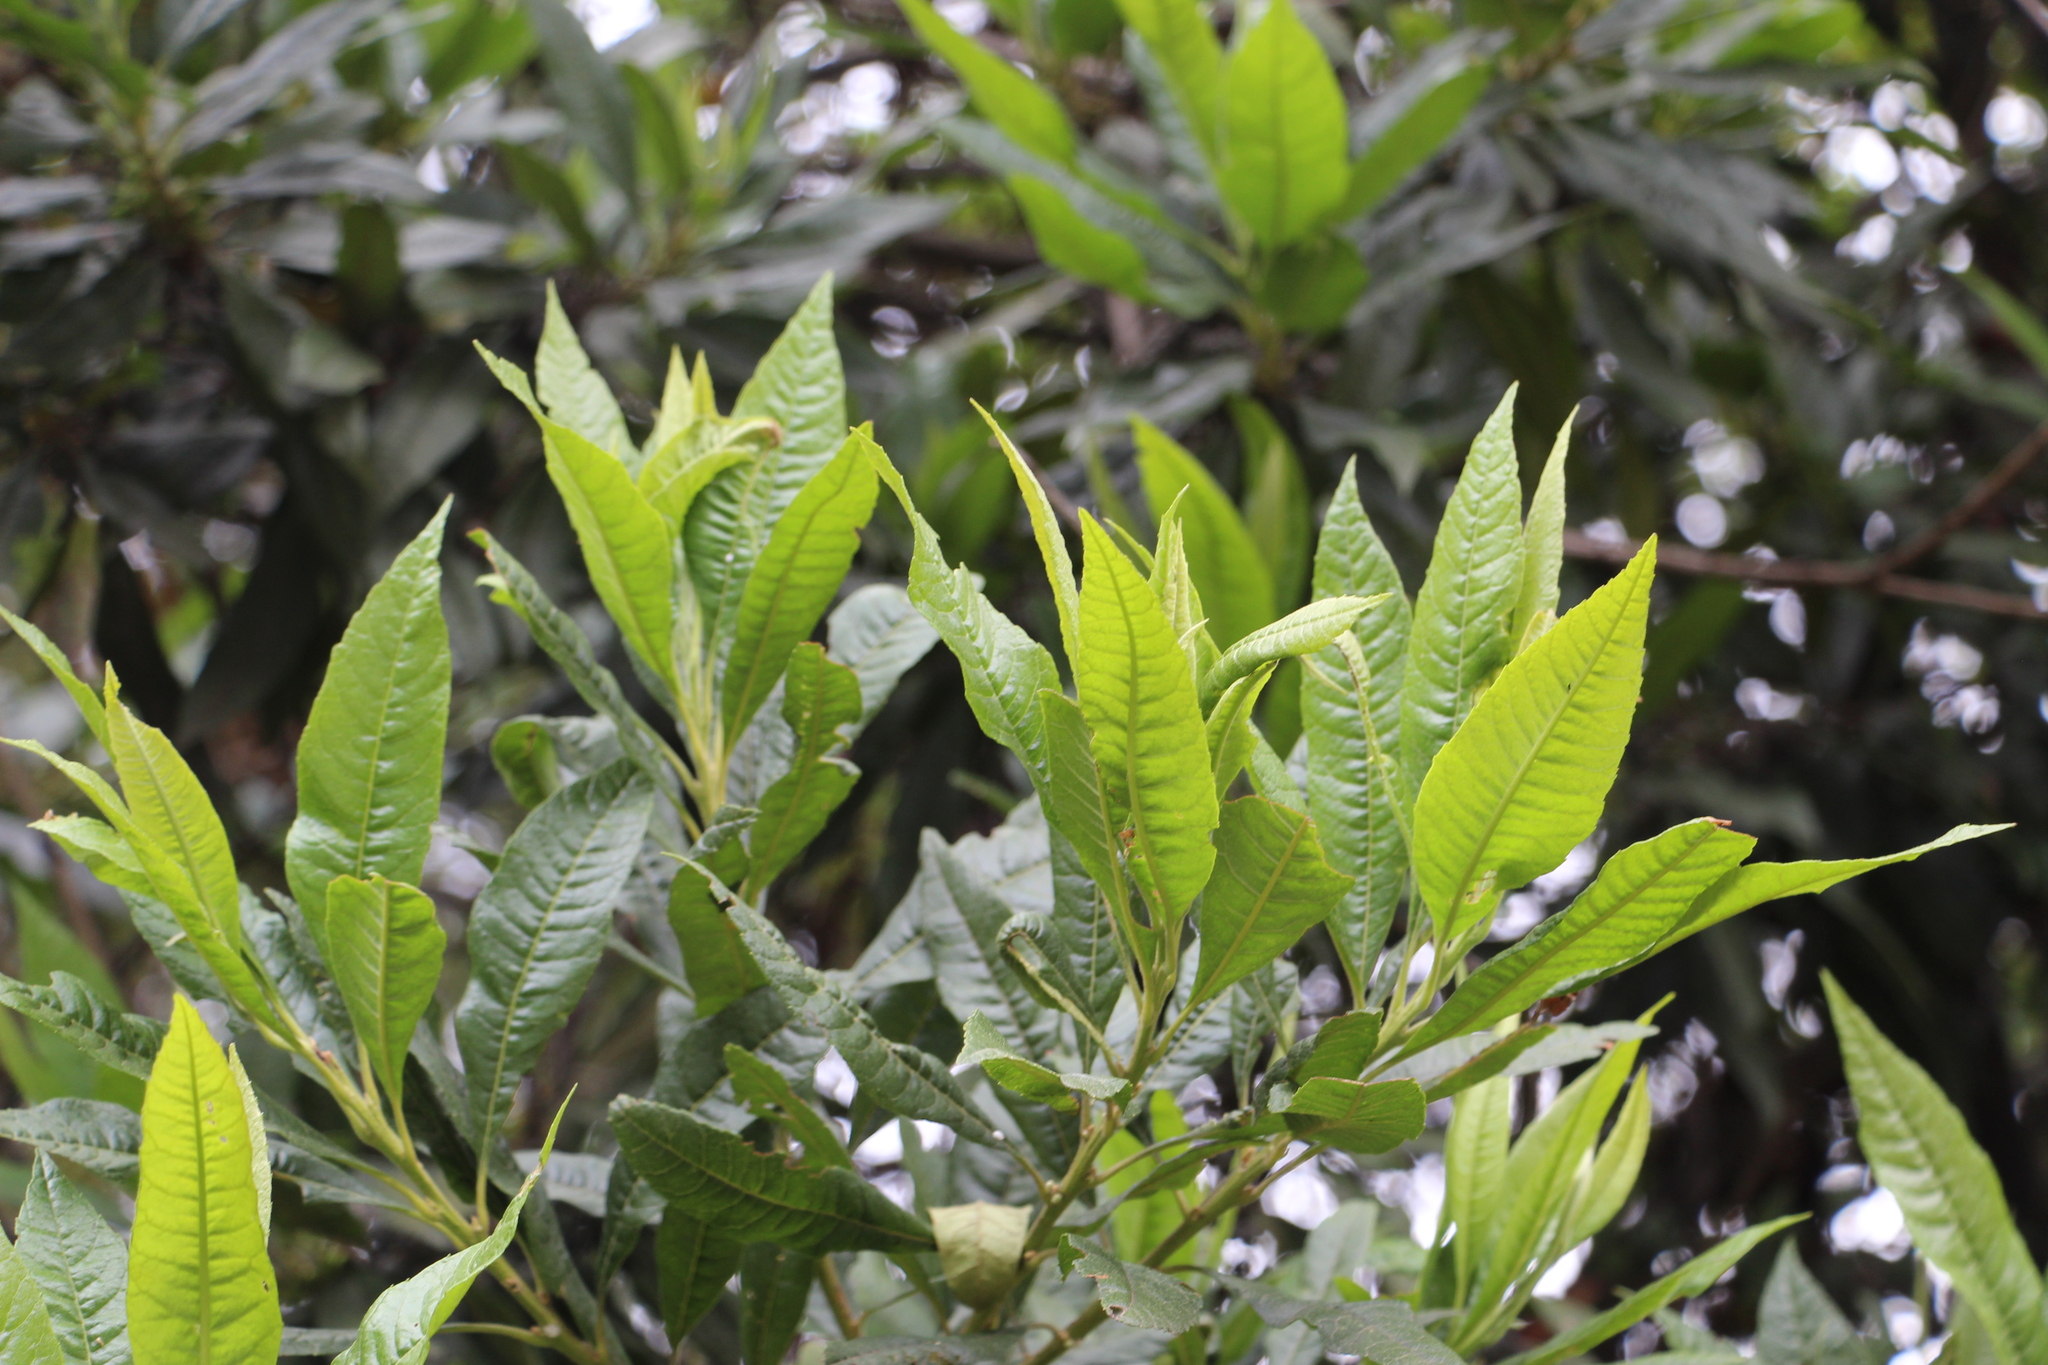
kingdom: Plantae
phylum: Tracheophyta
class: Magnoliopsida
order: Fagales
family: Myricaceae
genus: Morella
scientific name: Morella pubescens
